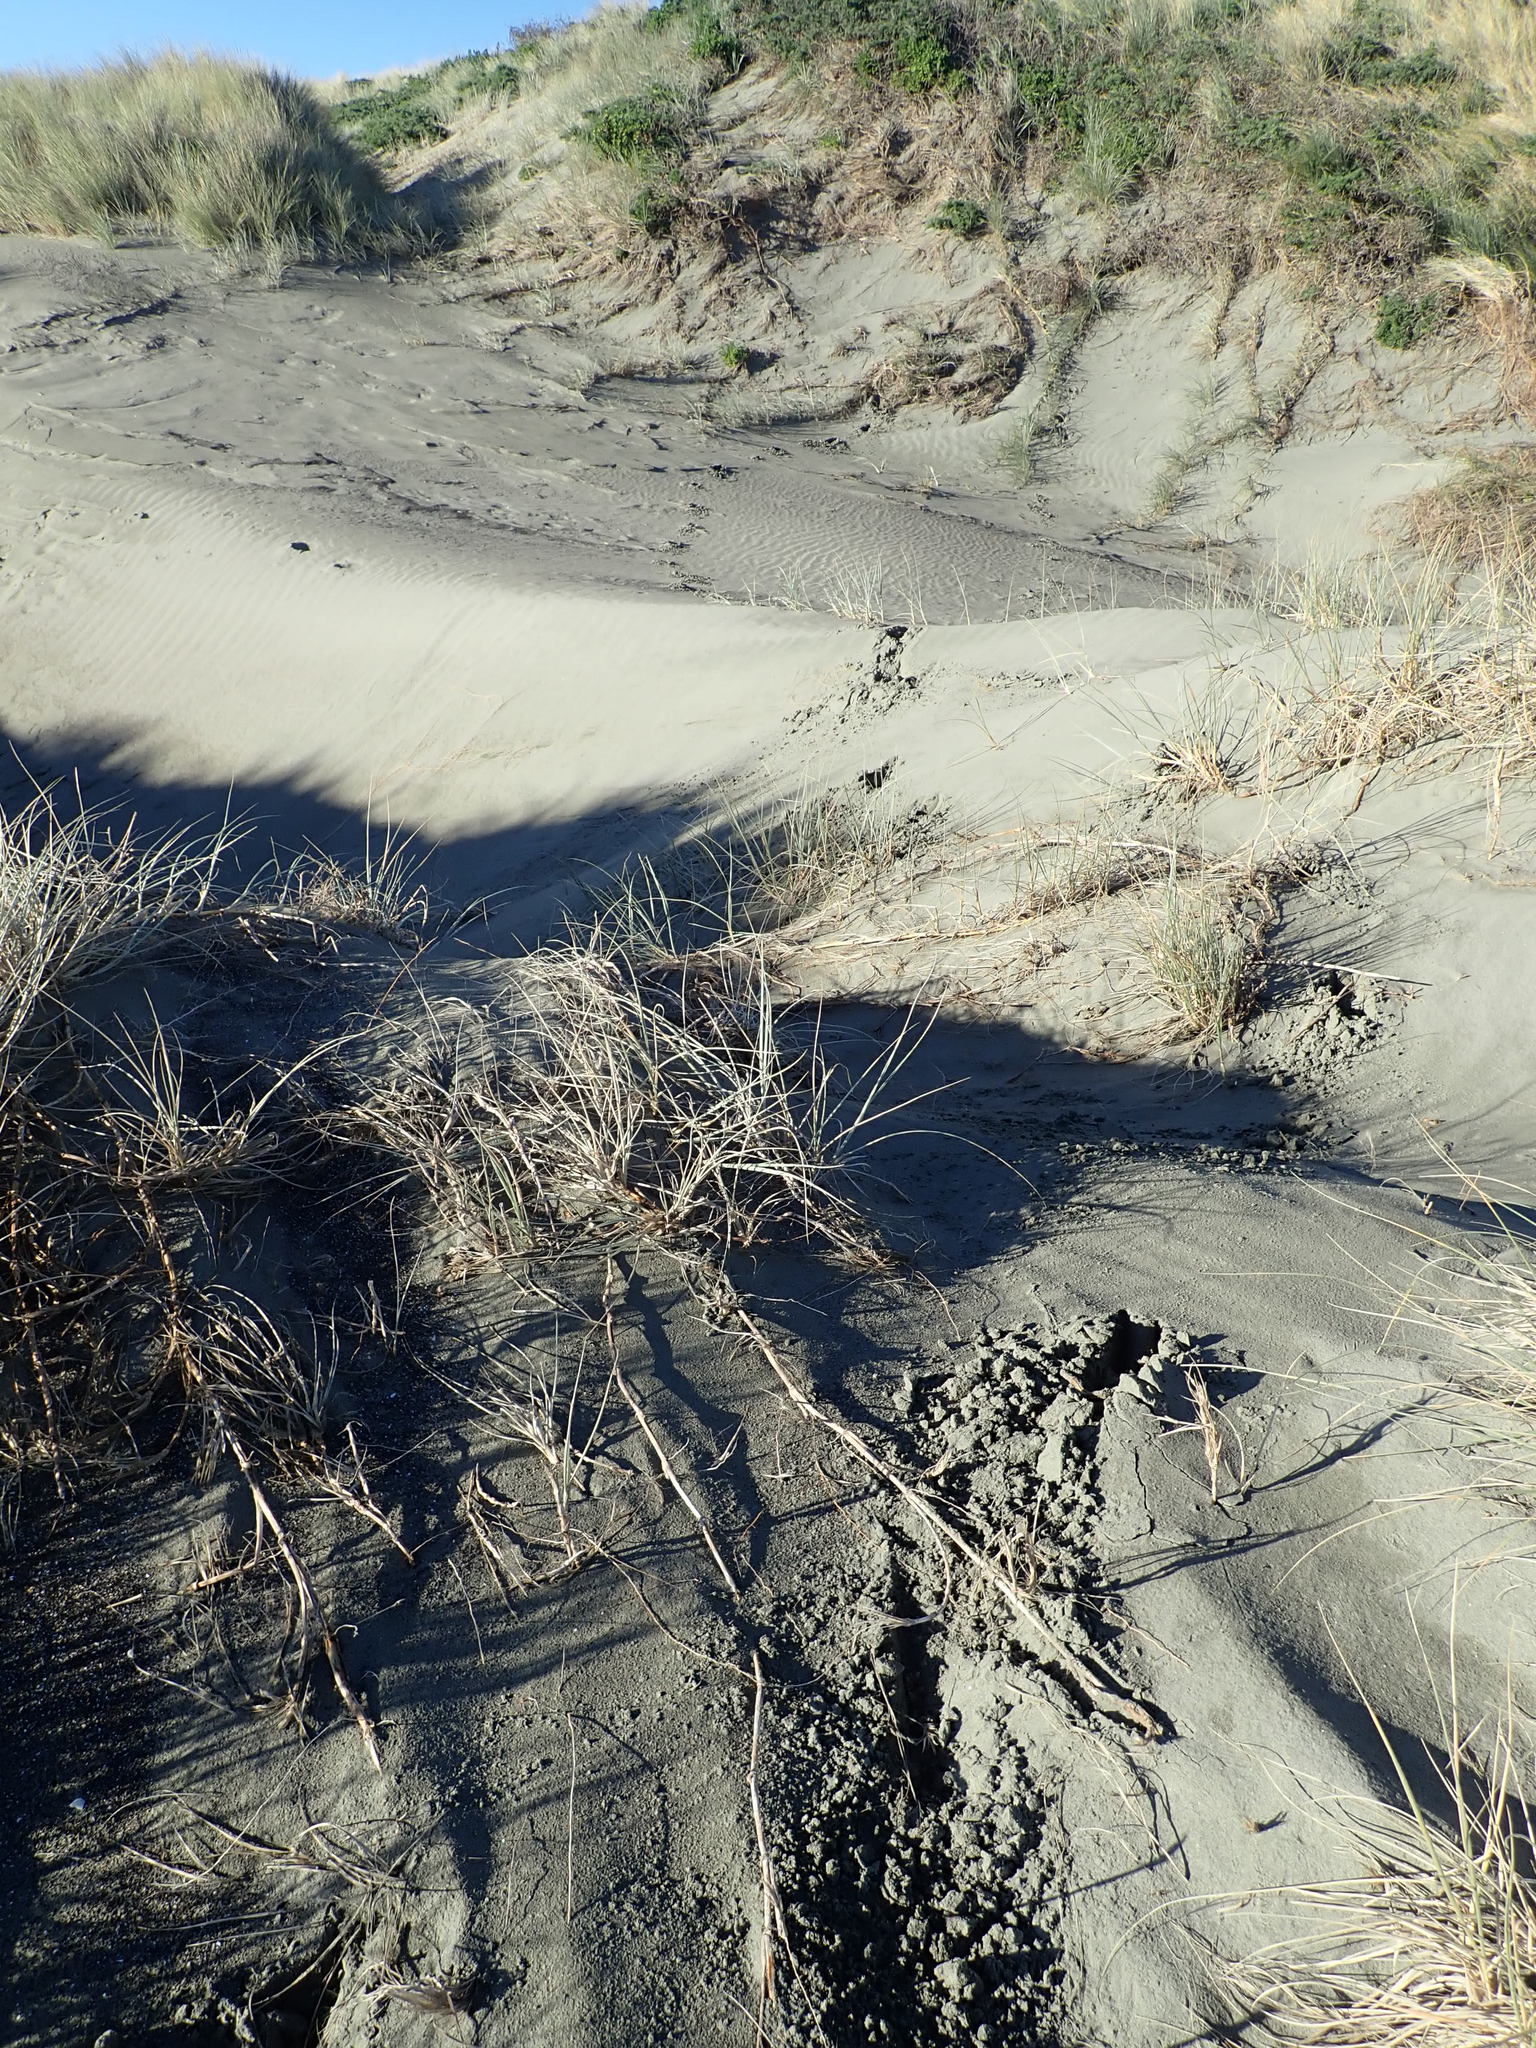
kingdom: Animalia
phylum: Chordata
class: Mammalia
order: Artiodactyla
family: Cervidae
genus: Rusa
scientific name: Rusa unicolor
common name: Sambar
